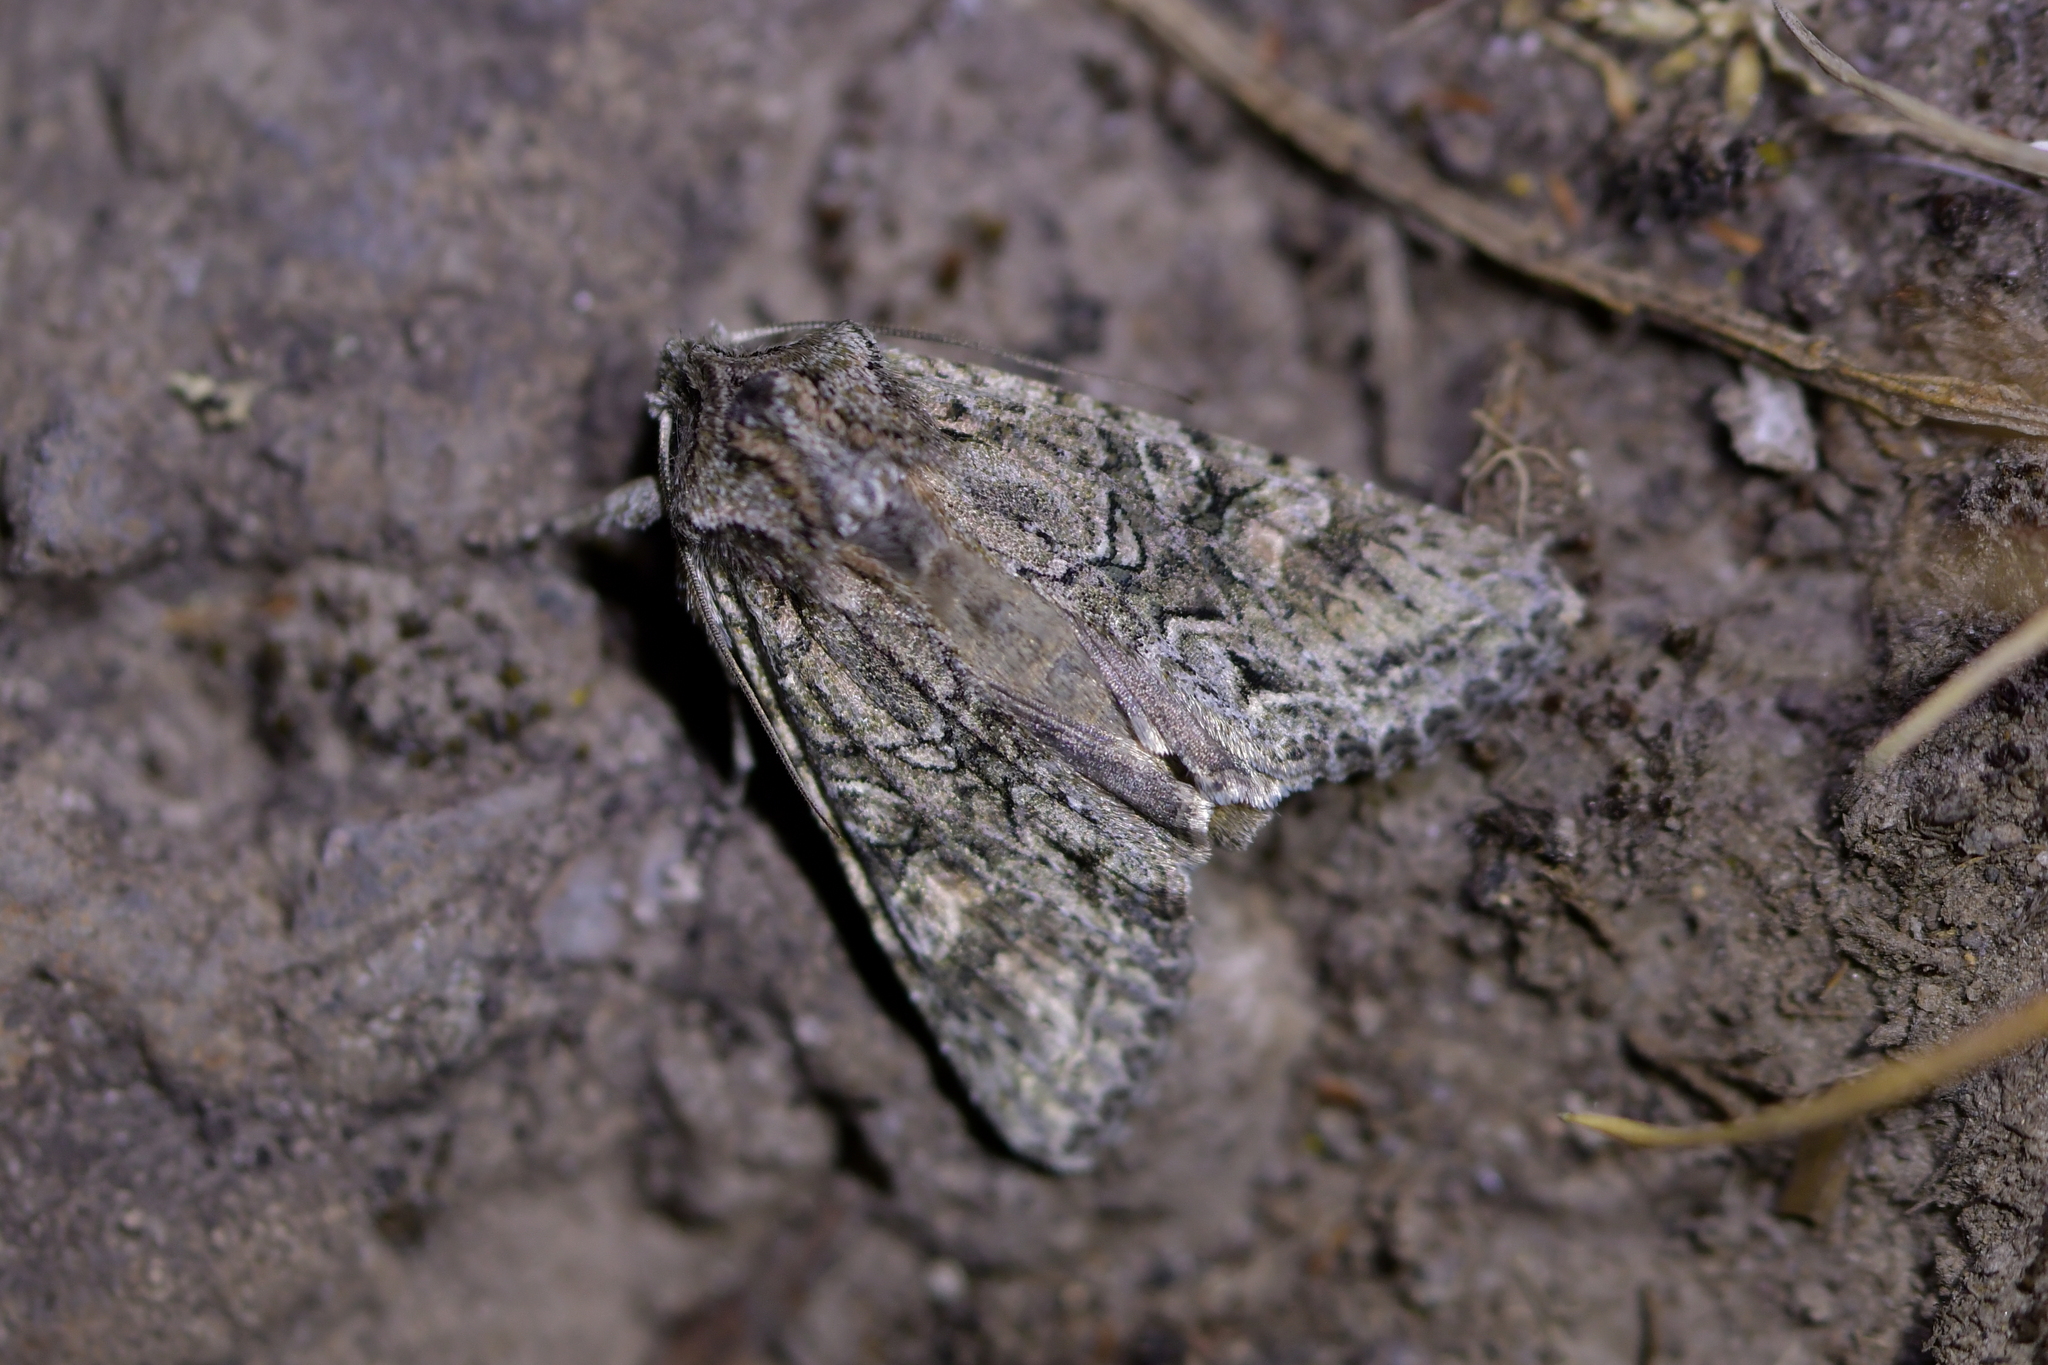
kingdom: Animalia
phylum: Arthropoda
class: Insecta
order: Lepidoptera
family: Noctuidae
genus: Ichneutica
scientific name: Ichneutica mutans
